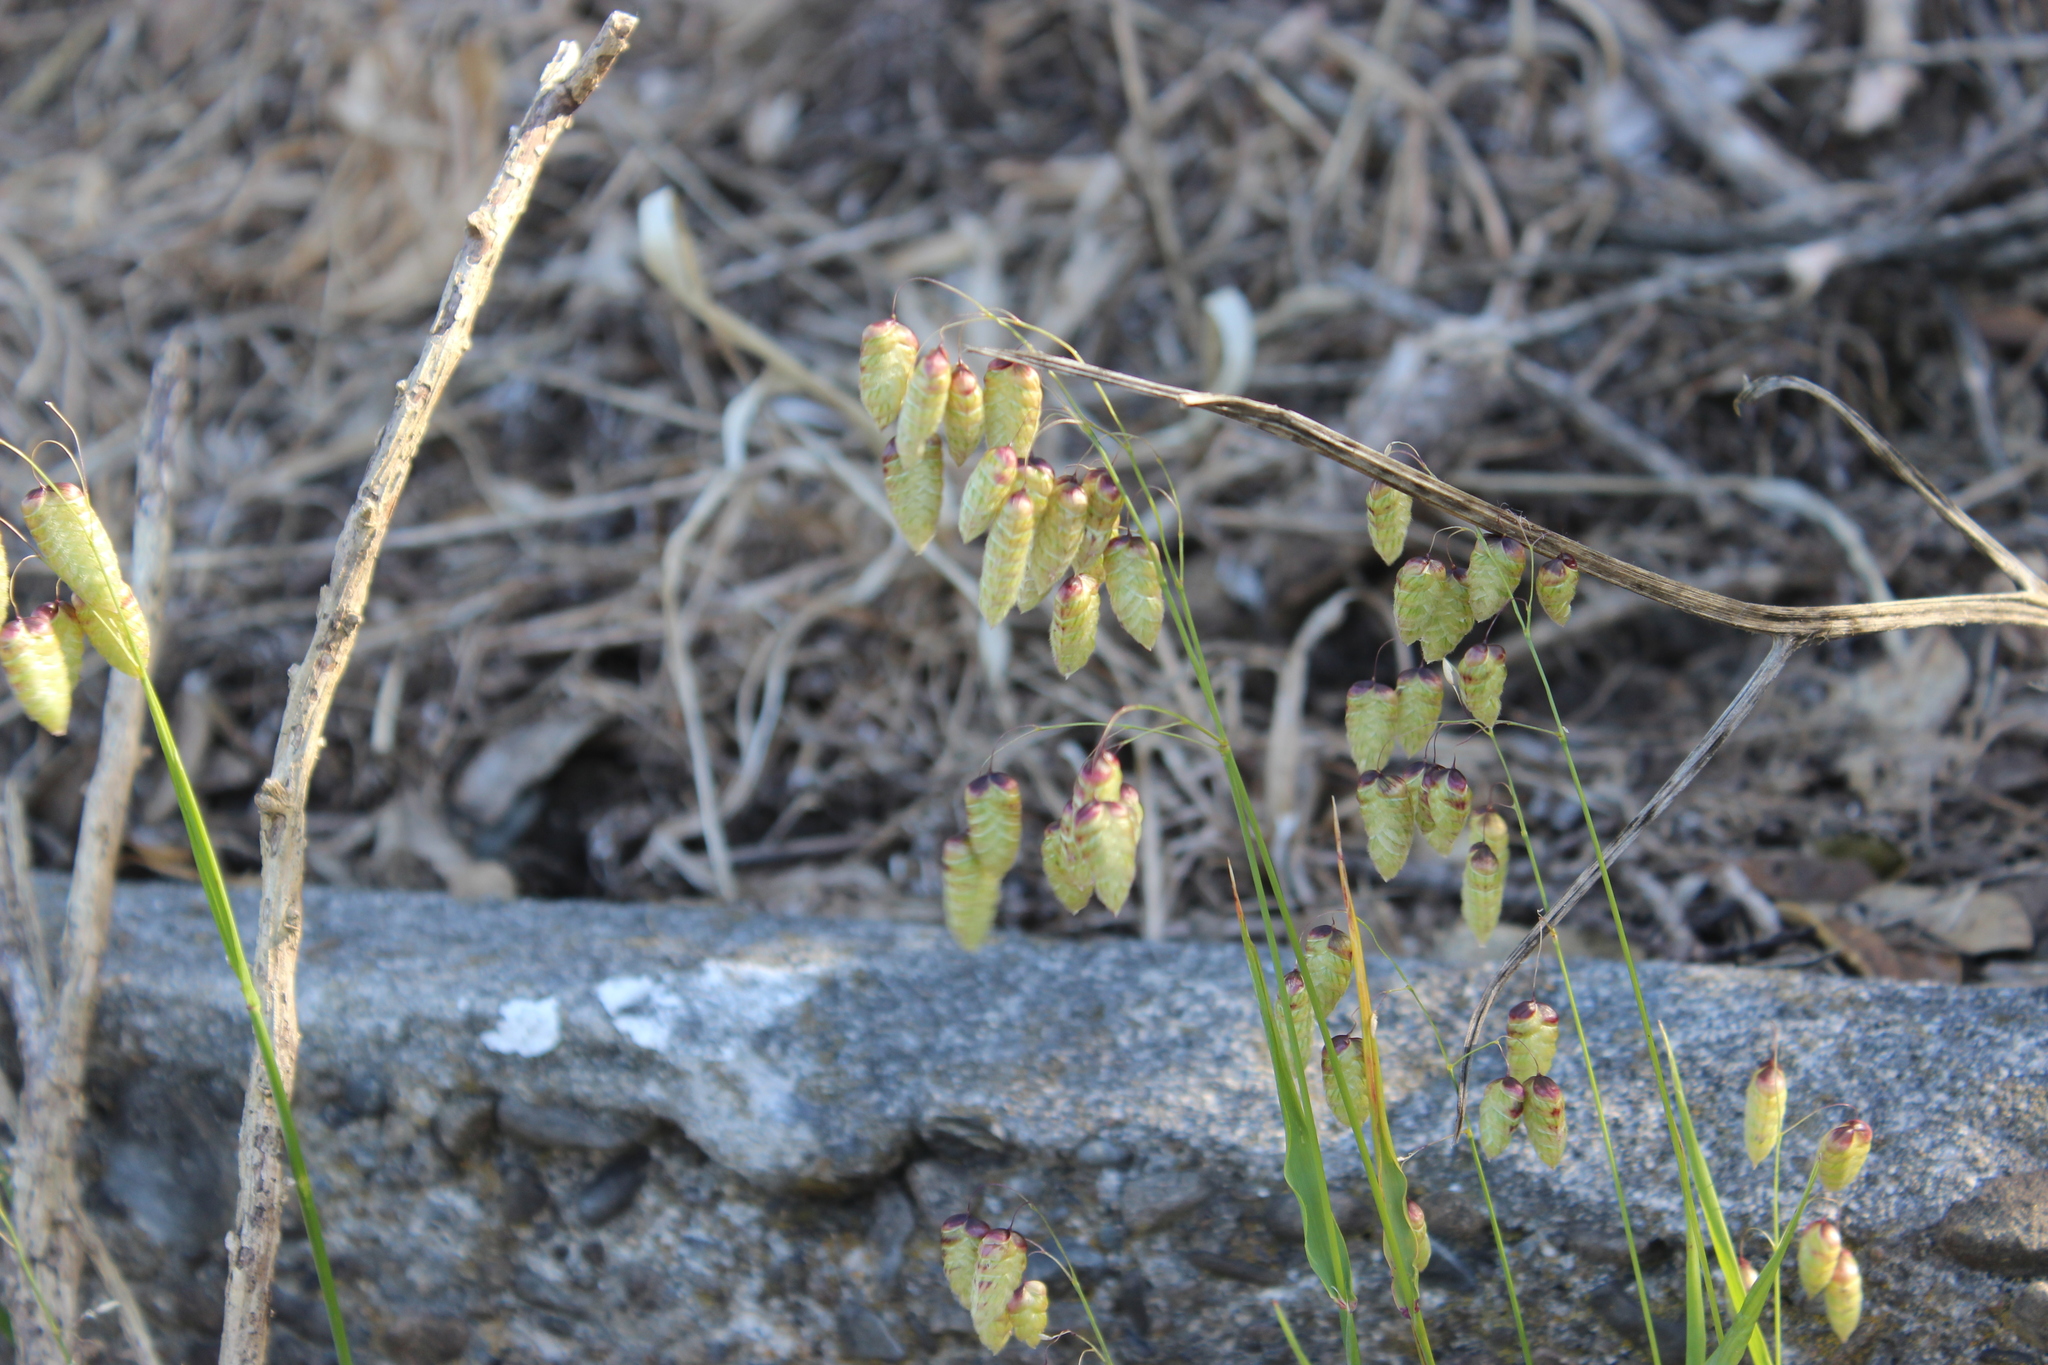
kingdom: Plantae
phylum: Tracheophyta
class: Liliopsida
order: Poales
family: Poaceae
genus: Briza
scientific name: Briza maxima
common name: Big quakinggrass
